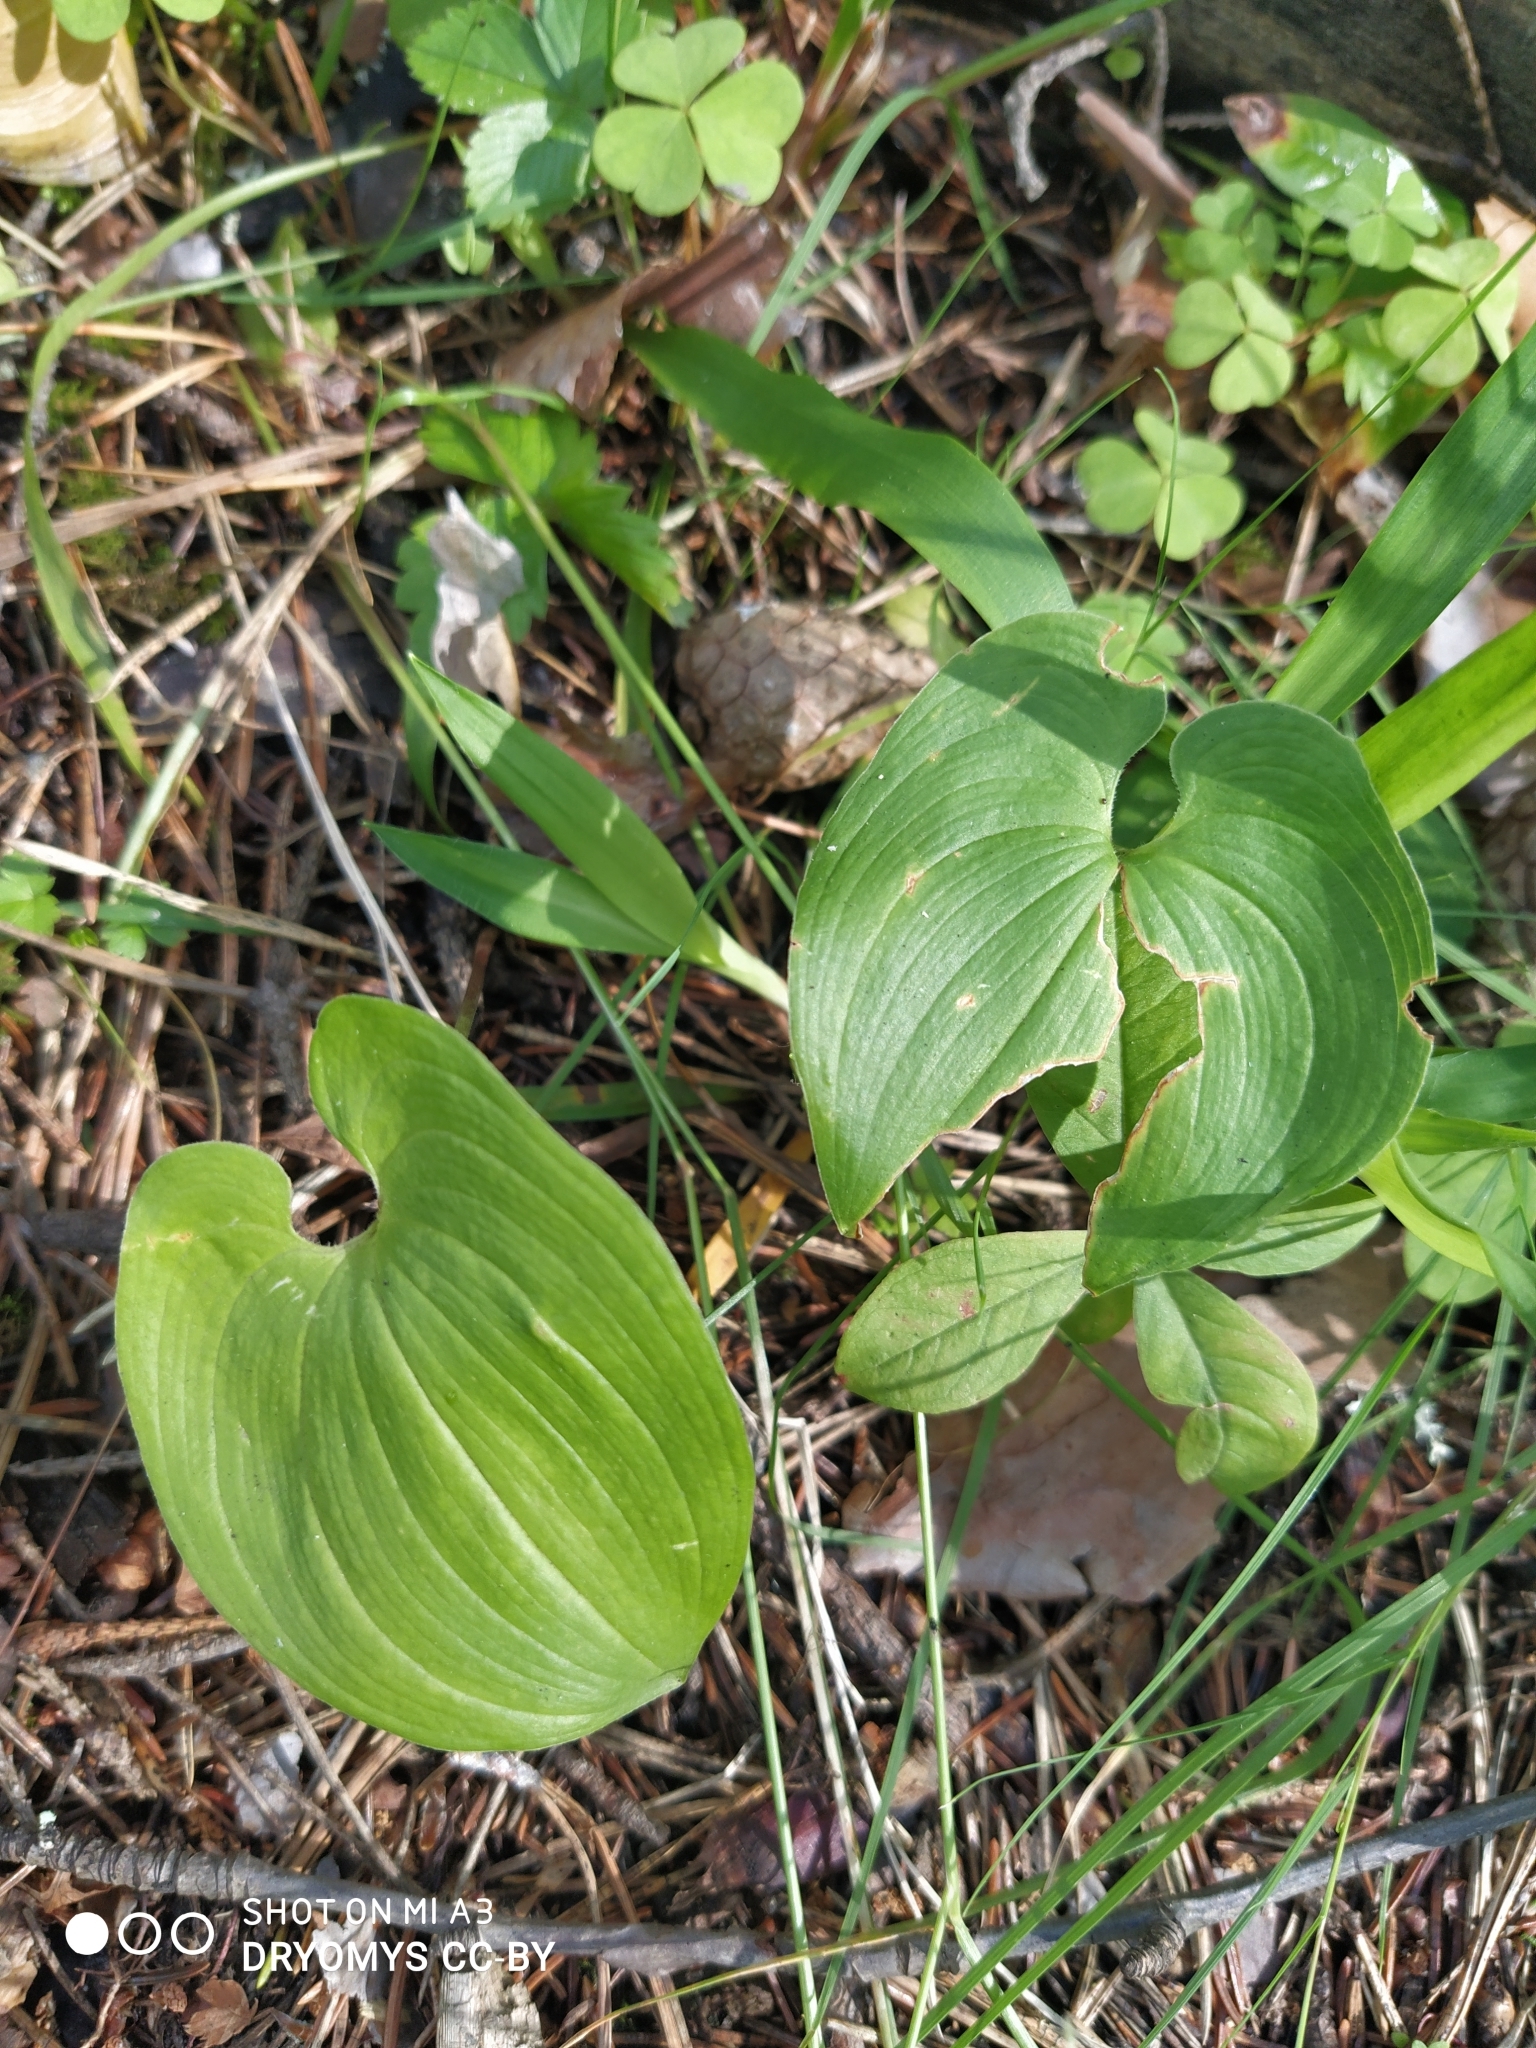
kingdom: Plantae
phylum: Tracheophyta
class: Liliopsida
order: Asparagales
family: Asparagaceae
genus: Maianthemum
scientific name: Maianthemum bifolium
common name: May lily
